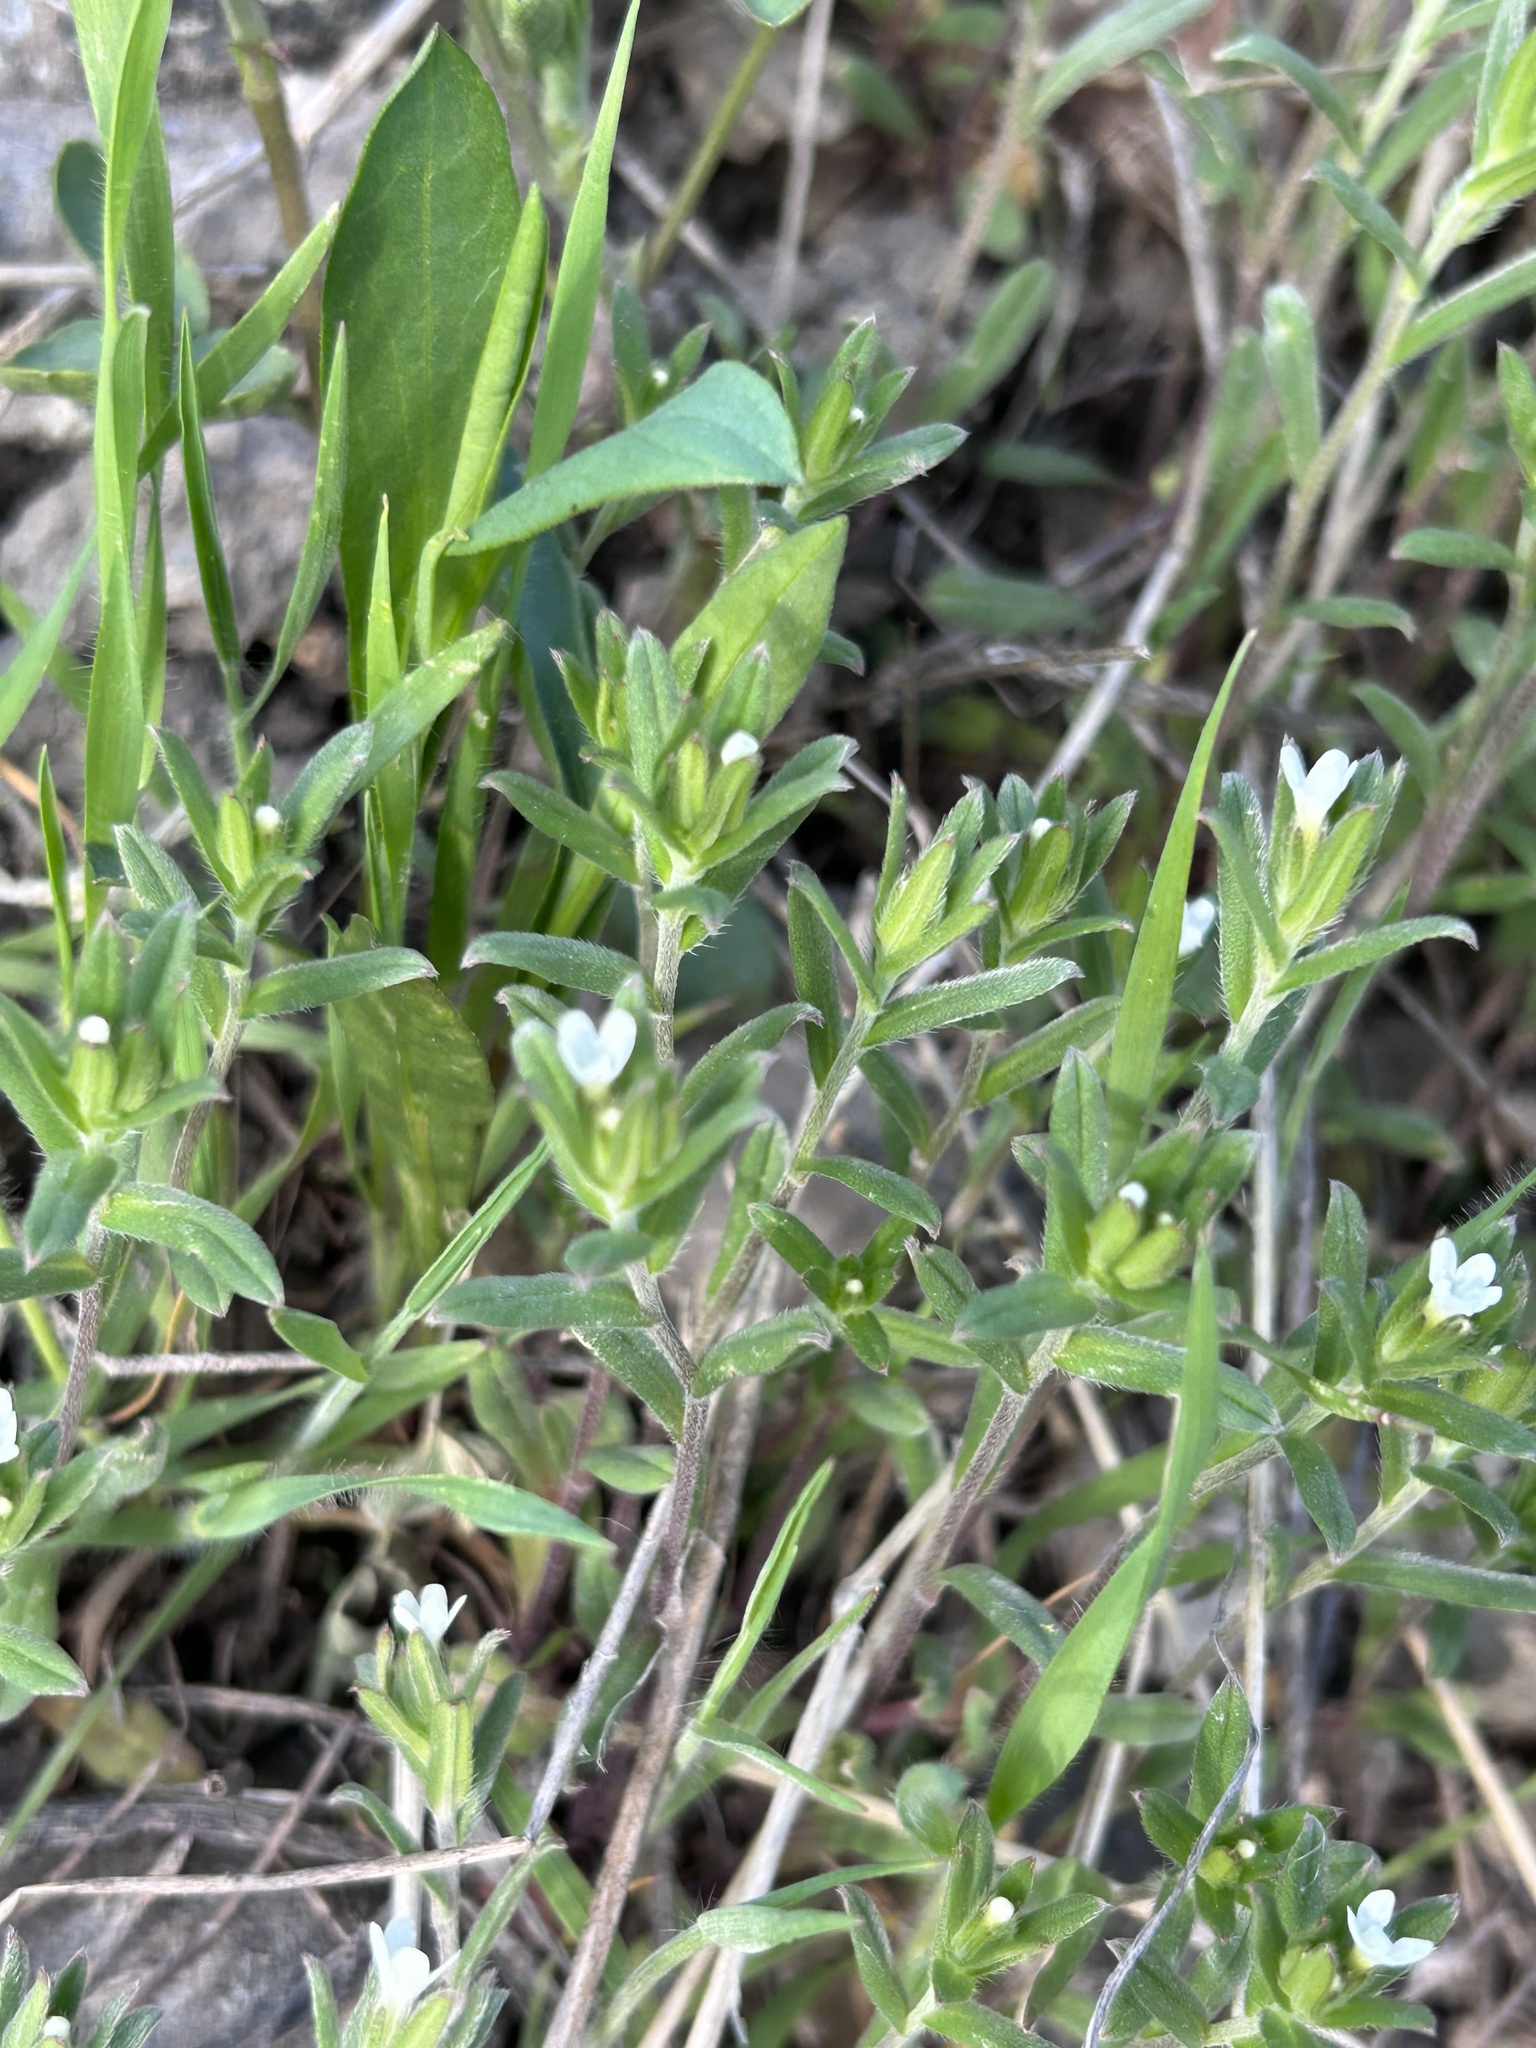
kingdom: Plantae
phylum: Tracheophyta
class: Magnoliopsida
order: Boraginales
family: Boraginaceae
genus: Buglossoides
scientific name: Buglossoides arvensis
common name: Corn gromwell
